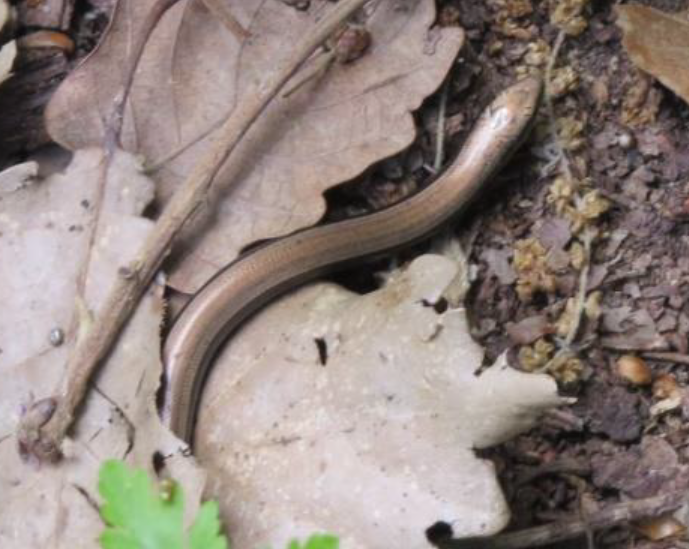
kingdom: Animalia
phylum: Chordata
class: Squamata
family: Scincidae
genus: Chalcides
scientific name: Chalcides mertensi
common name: Algerian three-toed skink
